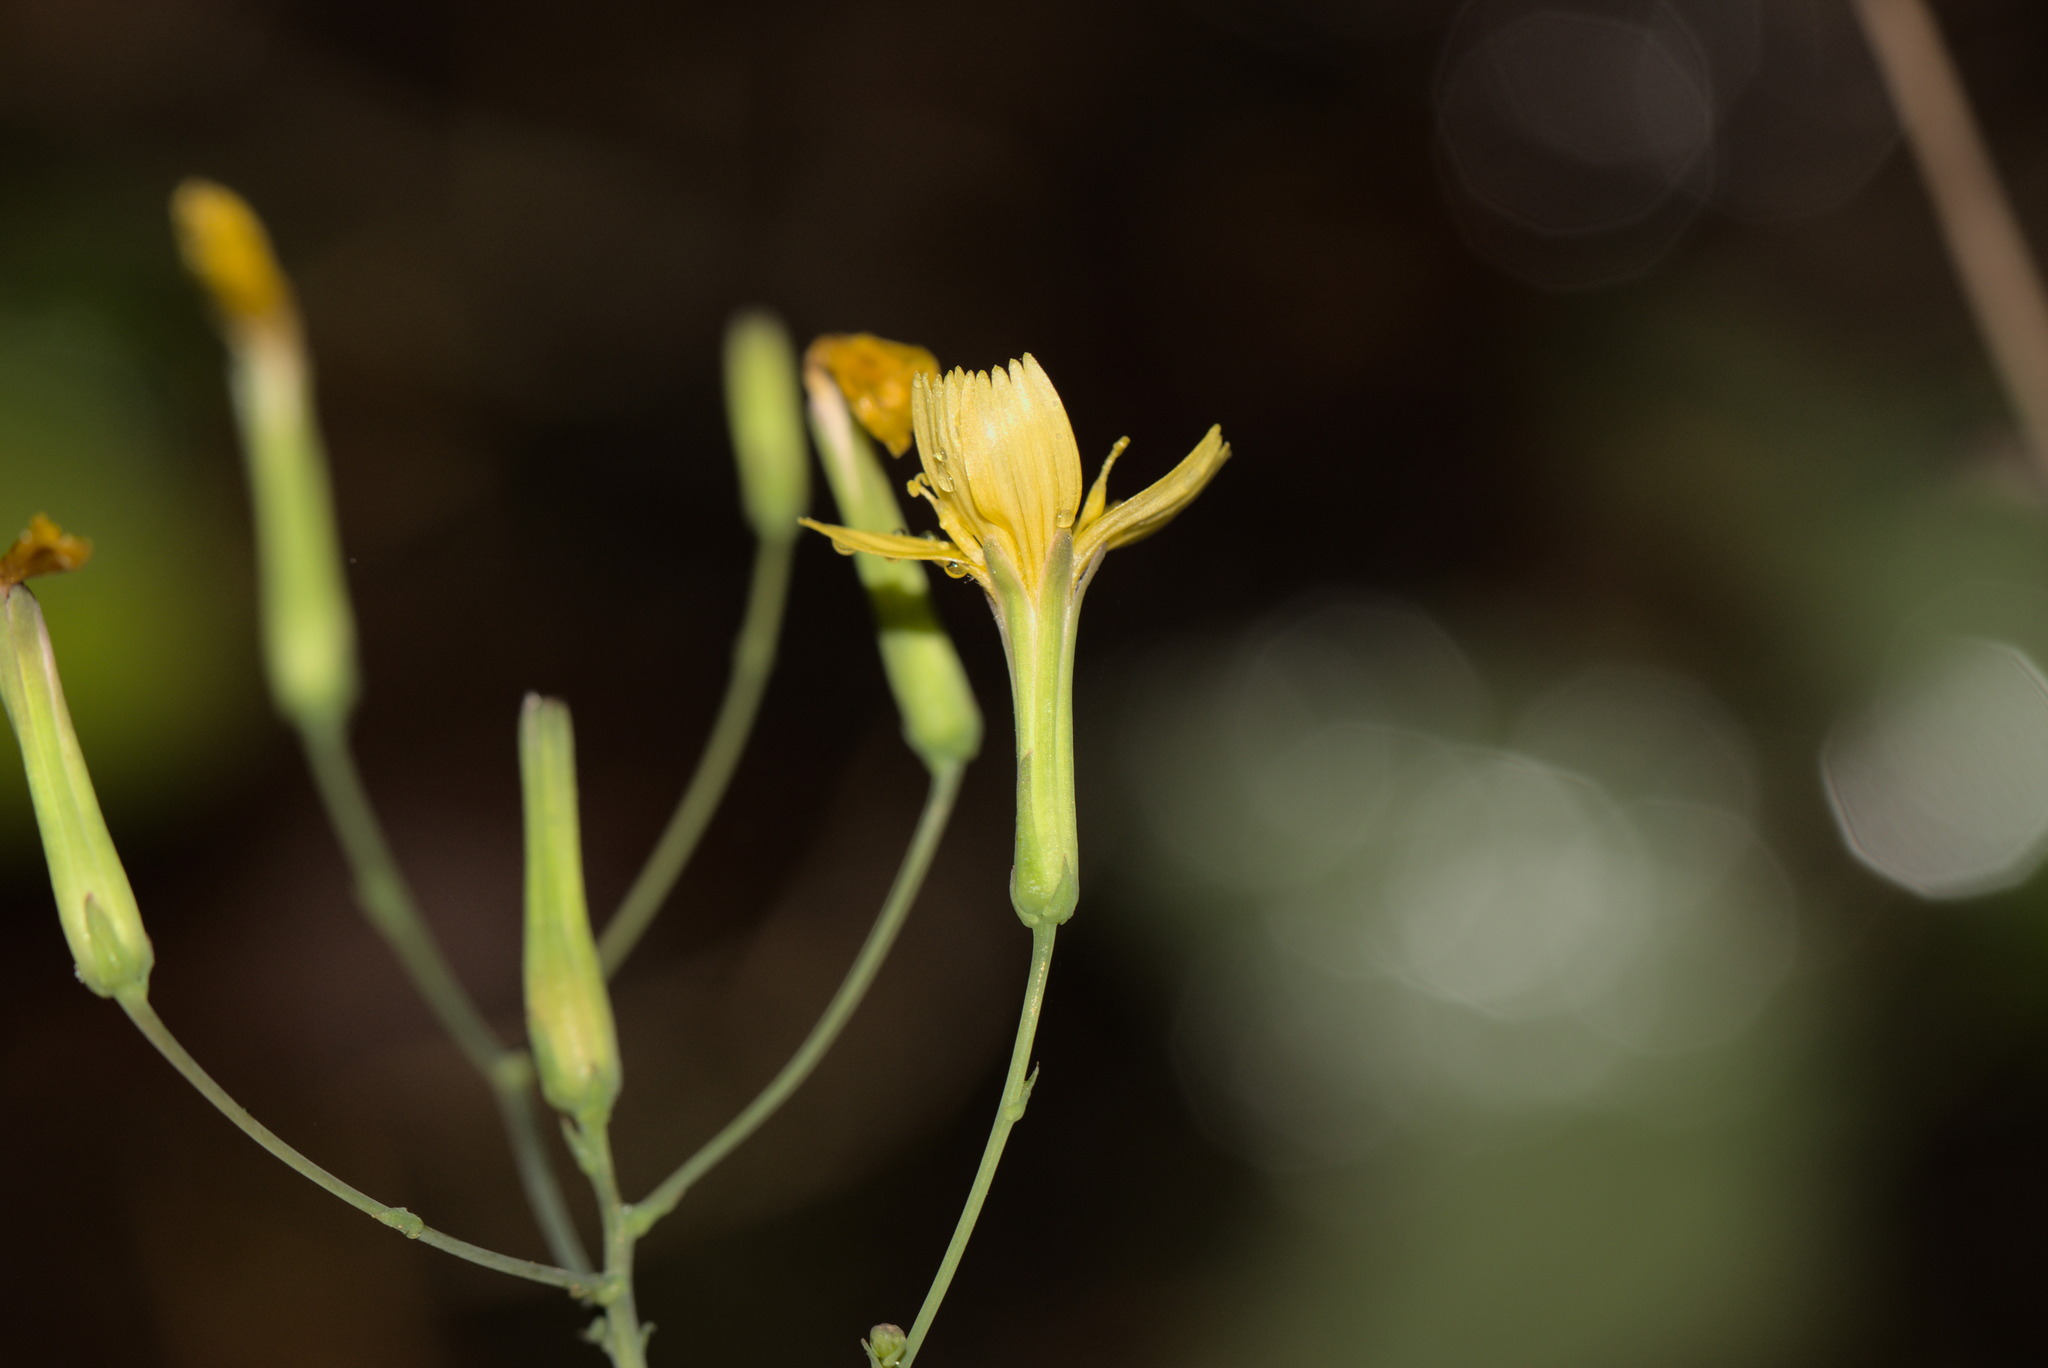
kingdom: Plantae
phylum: Tracheophyta
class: Magnoliopsida
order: Asterales
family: Asteraceae
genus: Mycelis
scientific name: Mycelis muralis
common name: Wall lettuce
